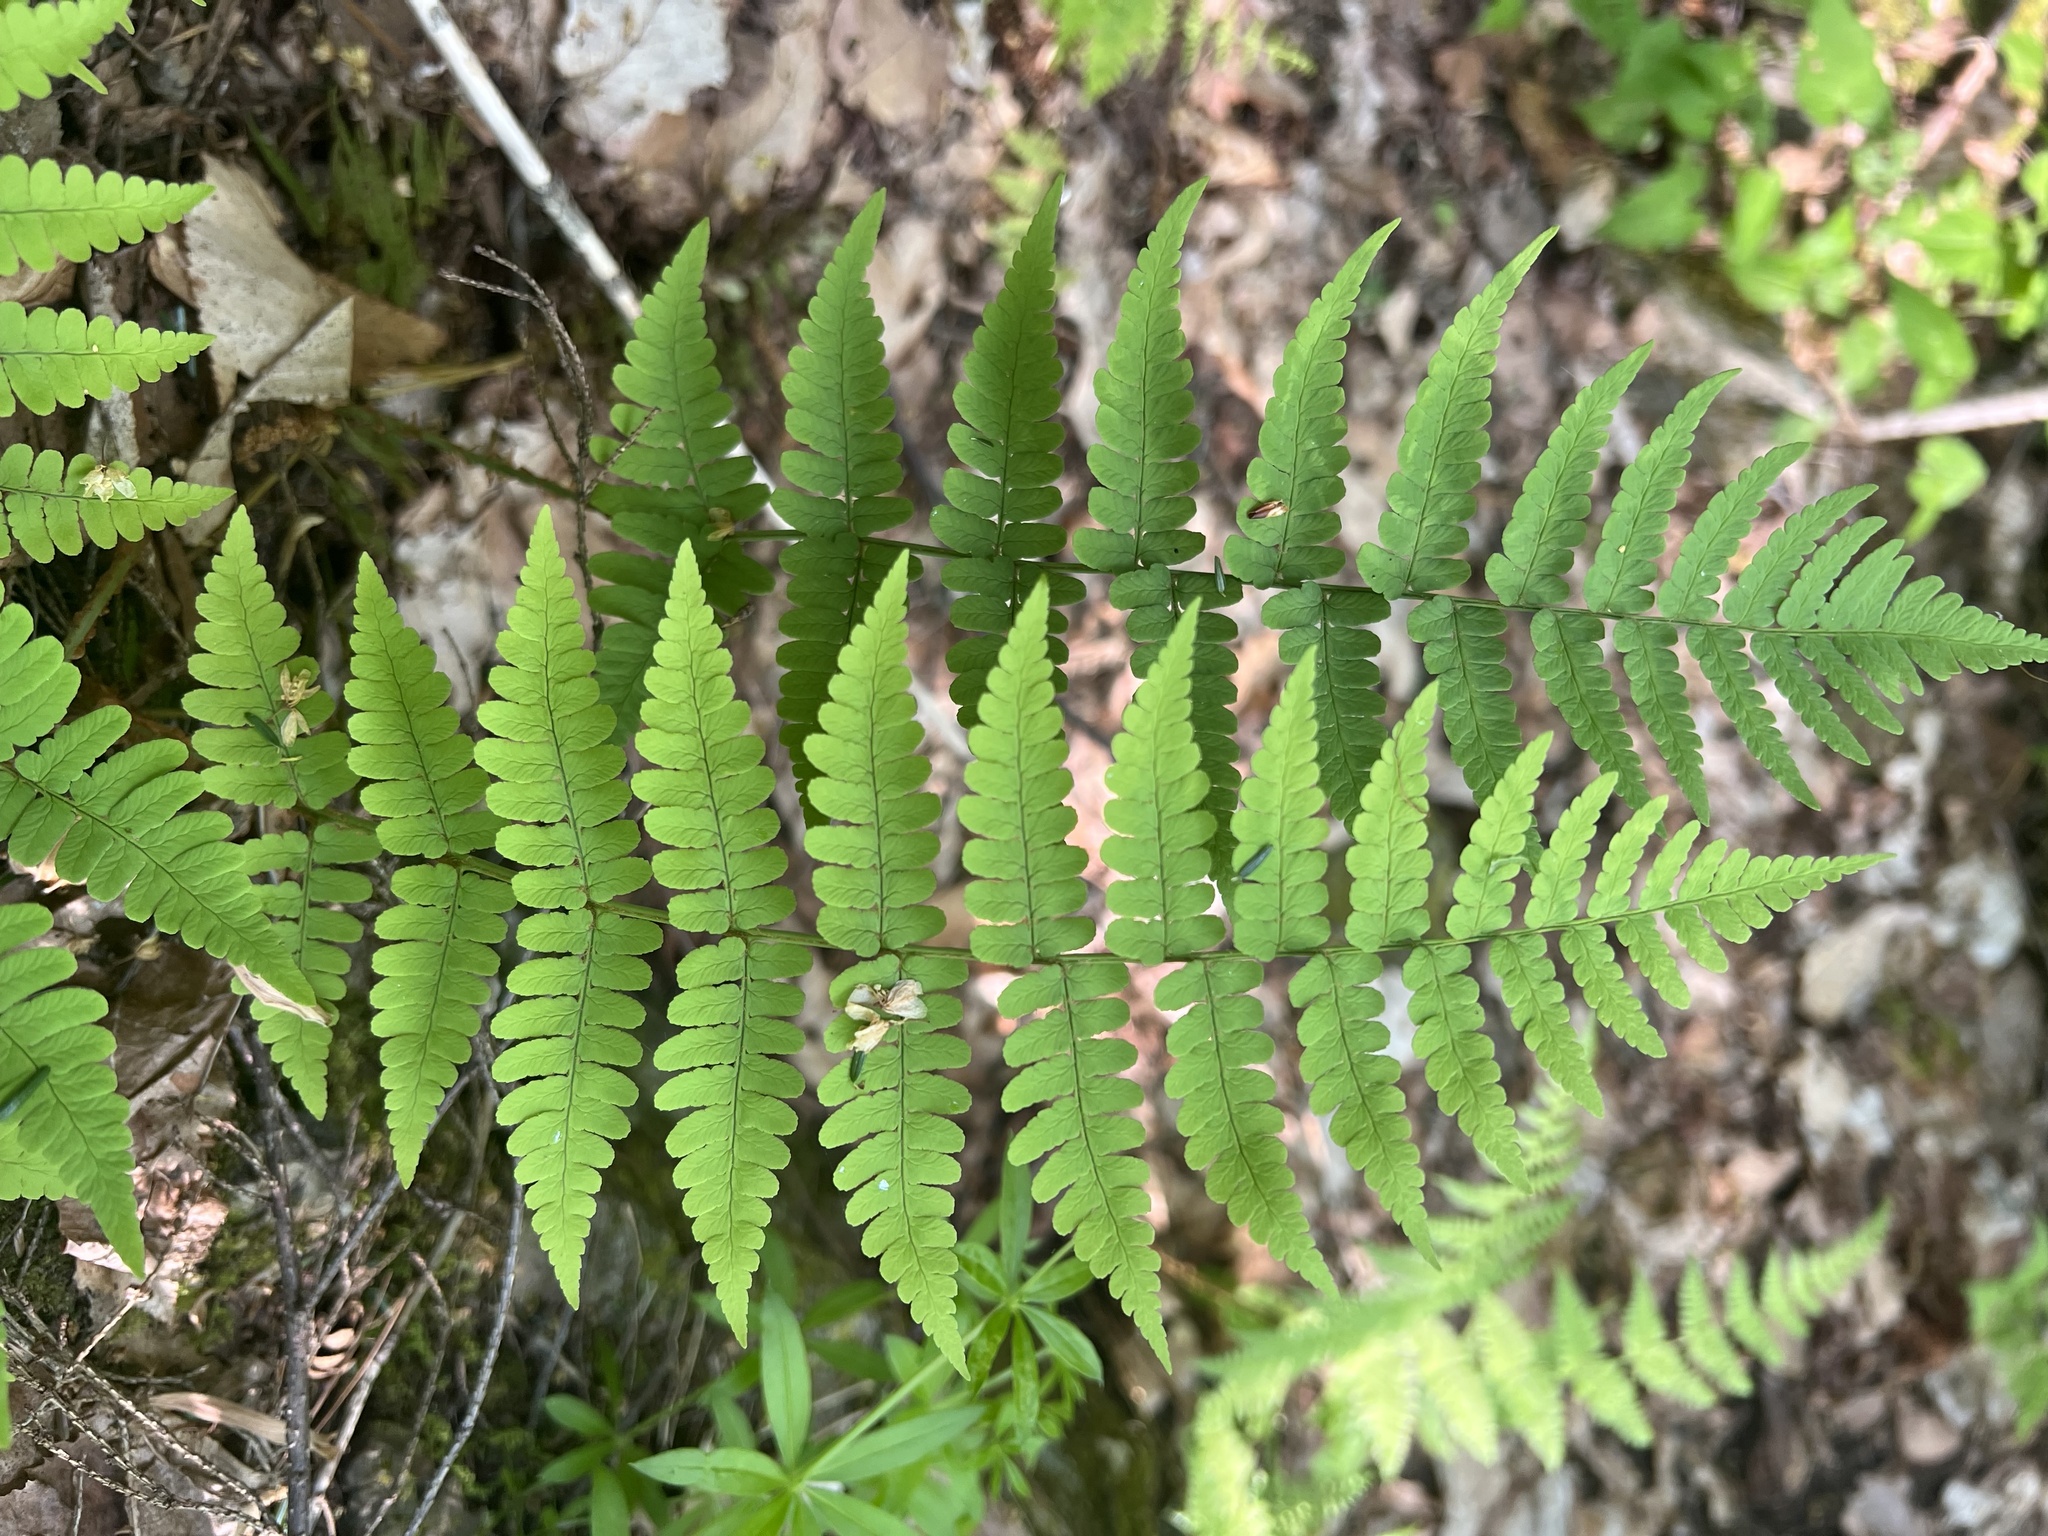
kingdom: Plantae
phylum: Tracheophyta
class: Polypodiopsida
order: Polypodiales
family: Dryopteridaceae
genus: Dryopteris
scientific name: Dryopteris marginalis
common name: Marginal wood fern
